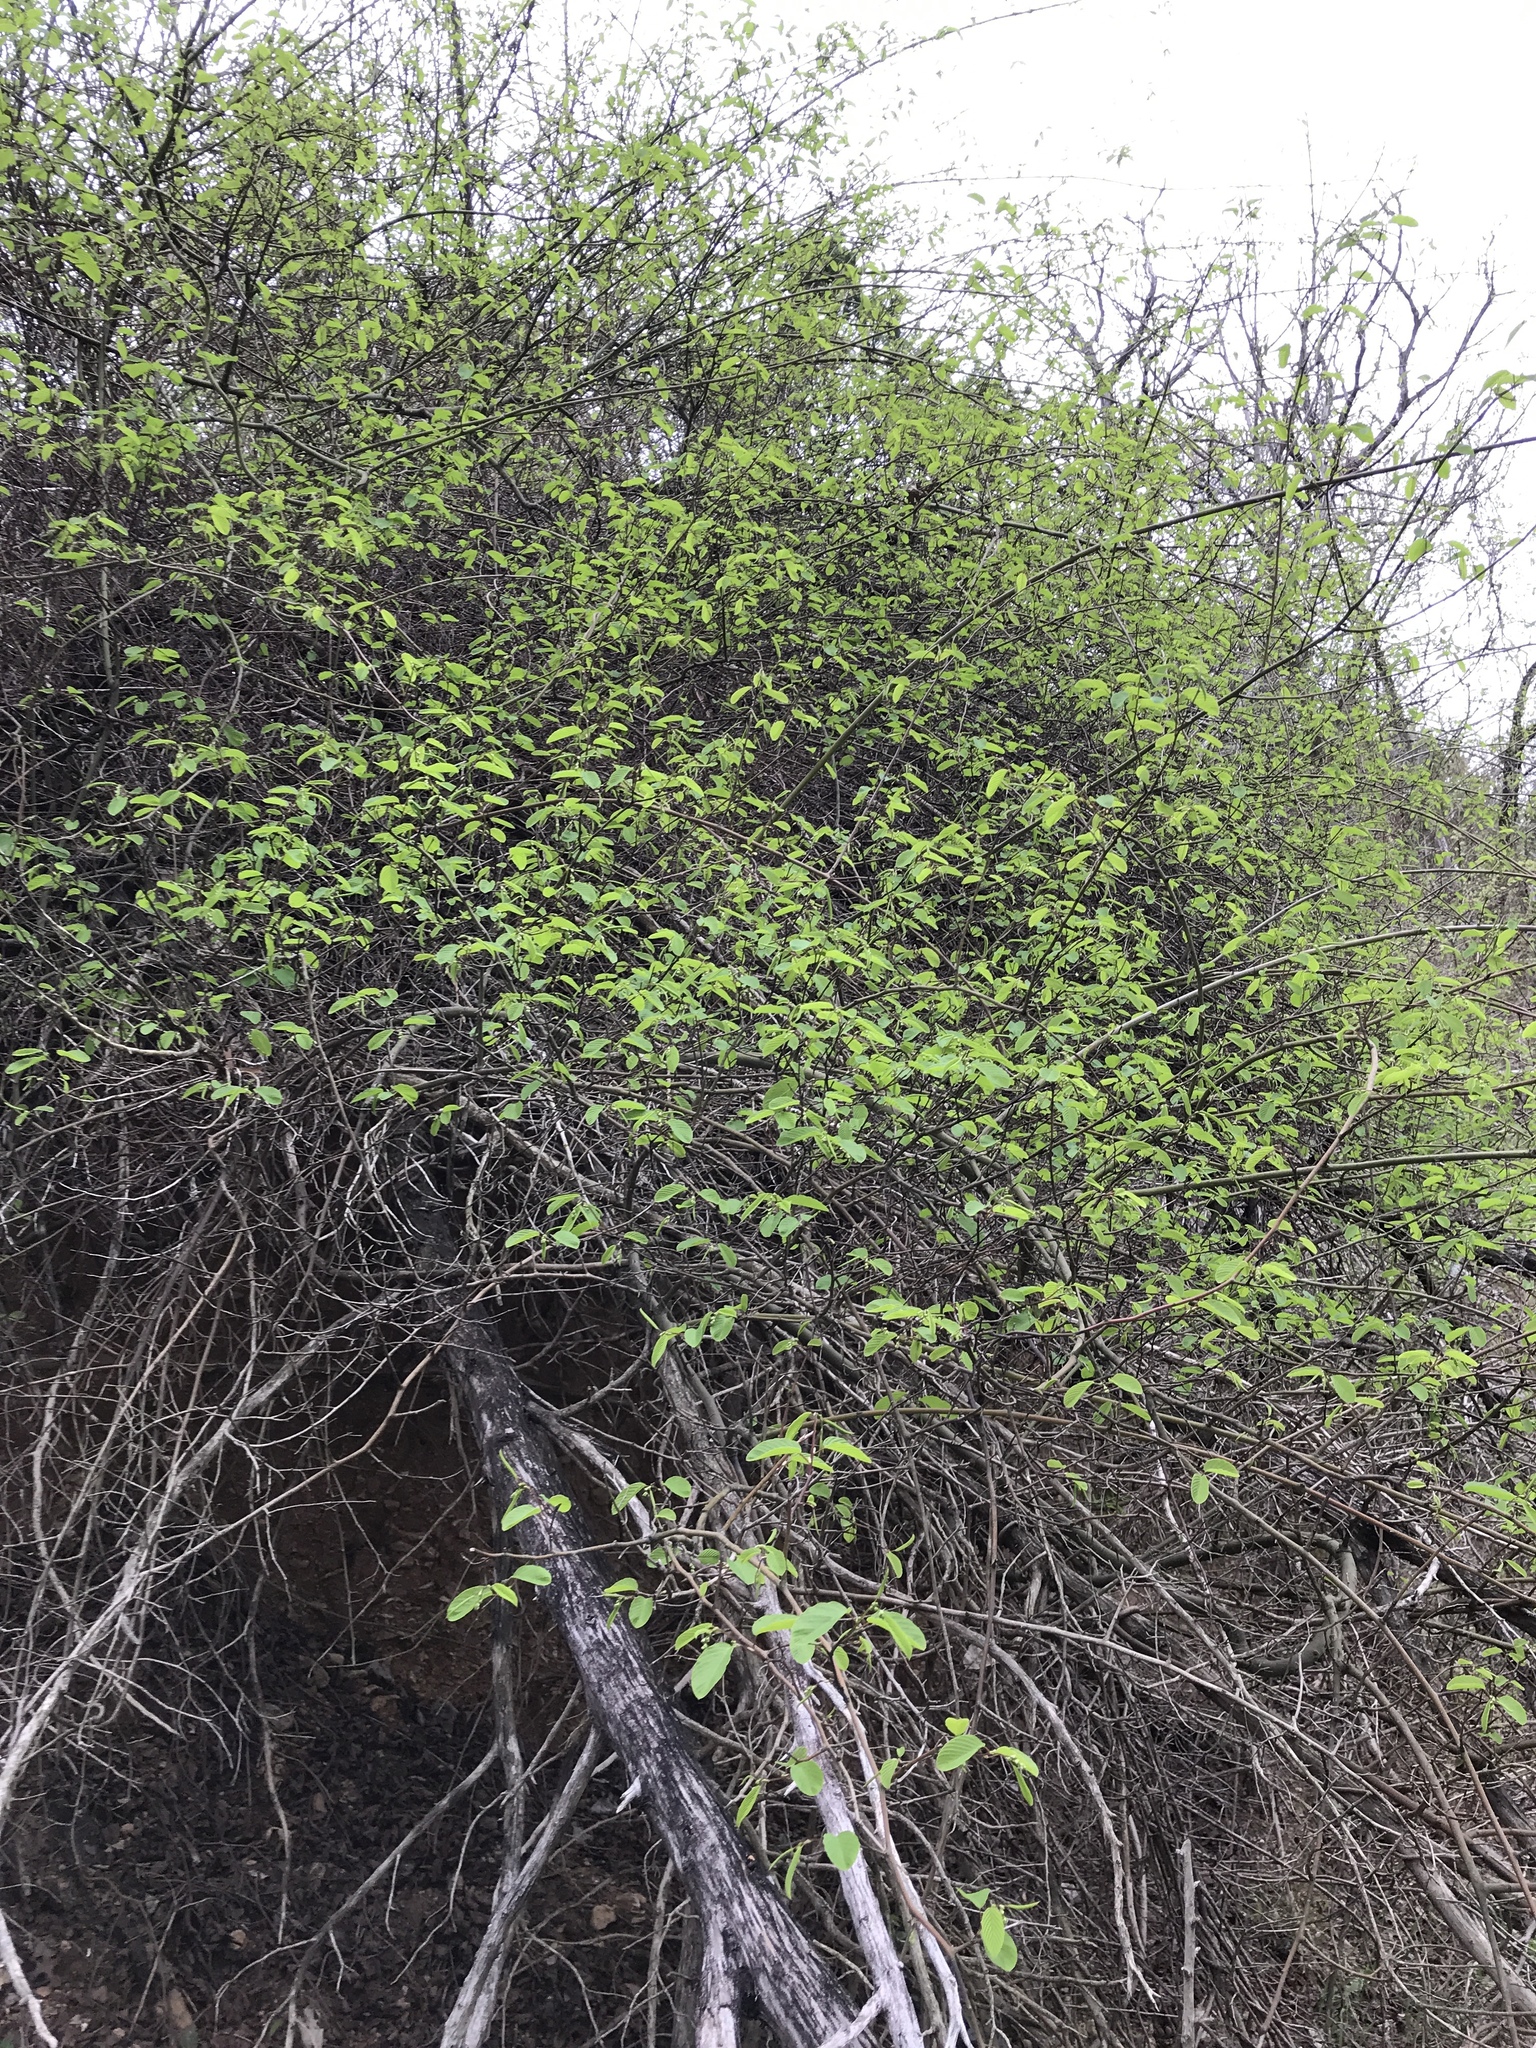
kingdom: Plantae
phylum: Tracheophyta
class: Magnoliopsida
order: Rosales
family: Rhamnaceae
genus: Berchemia
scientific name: Berchemia scandens
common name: Supplejack
